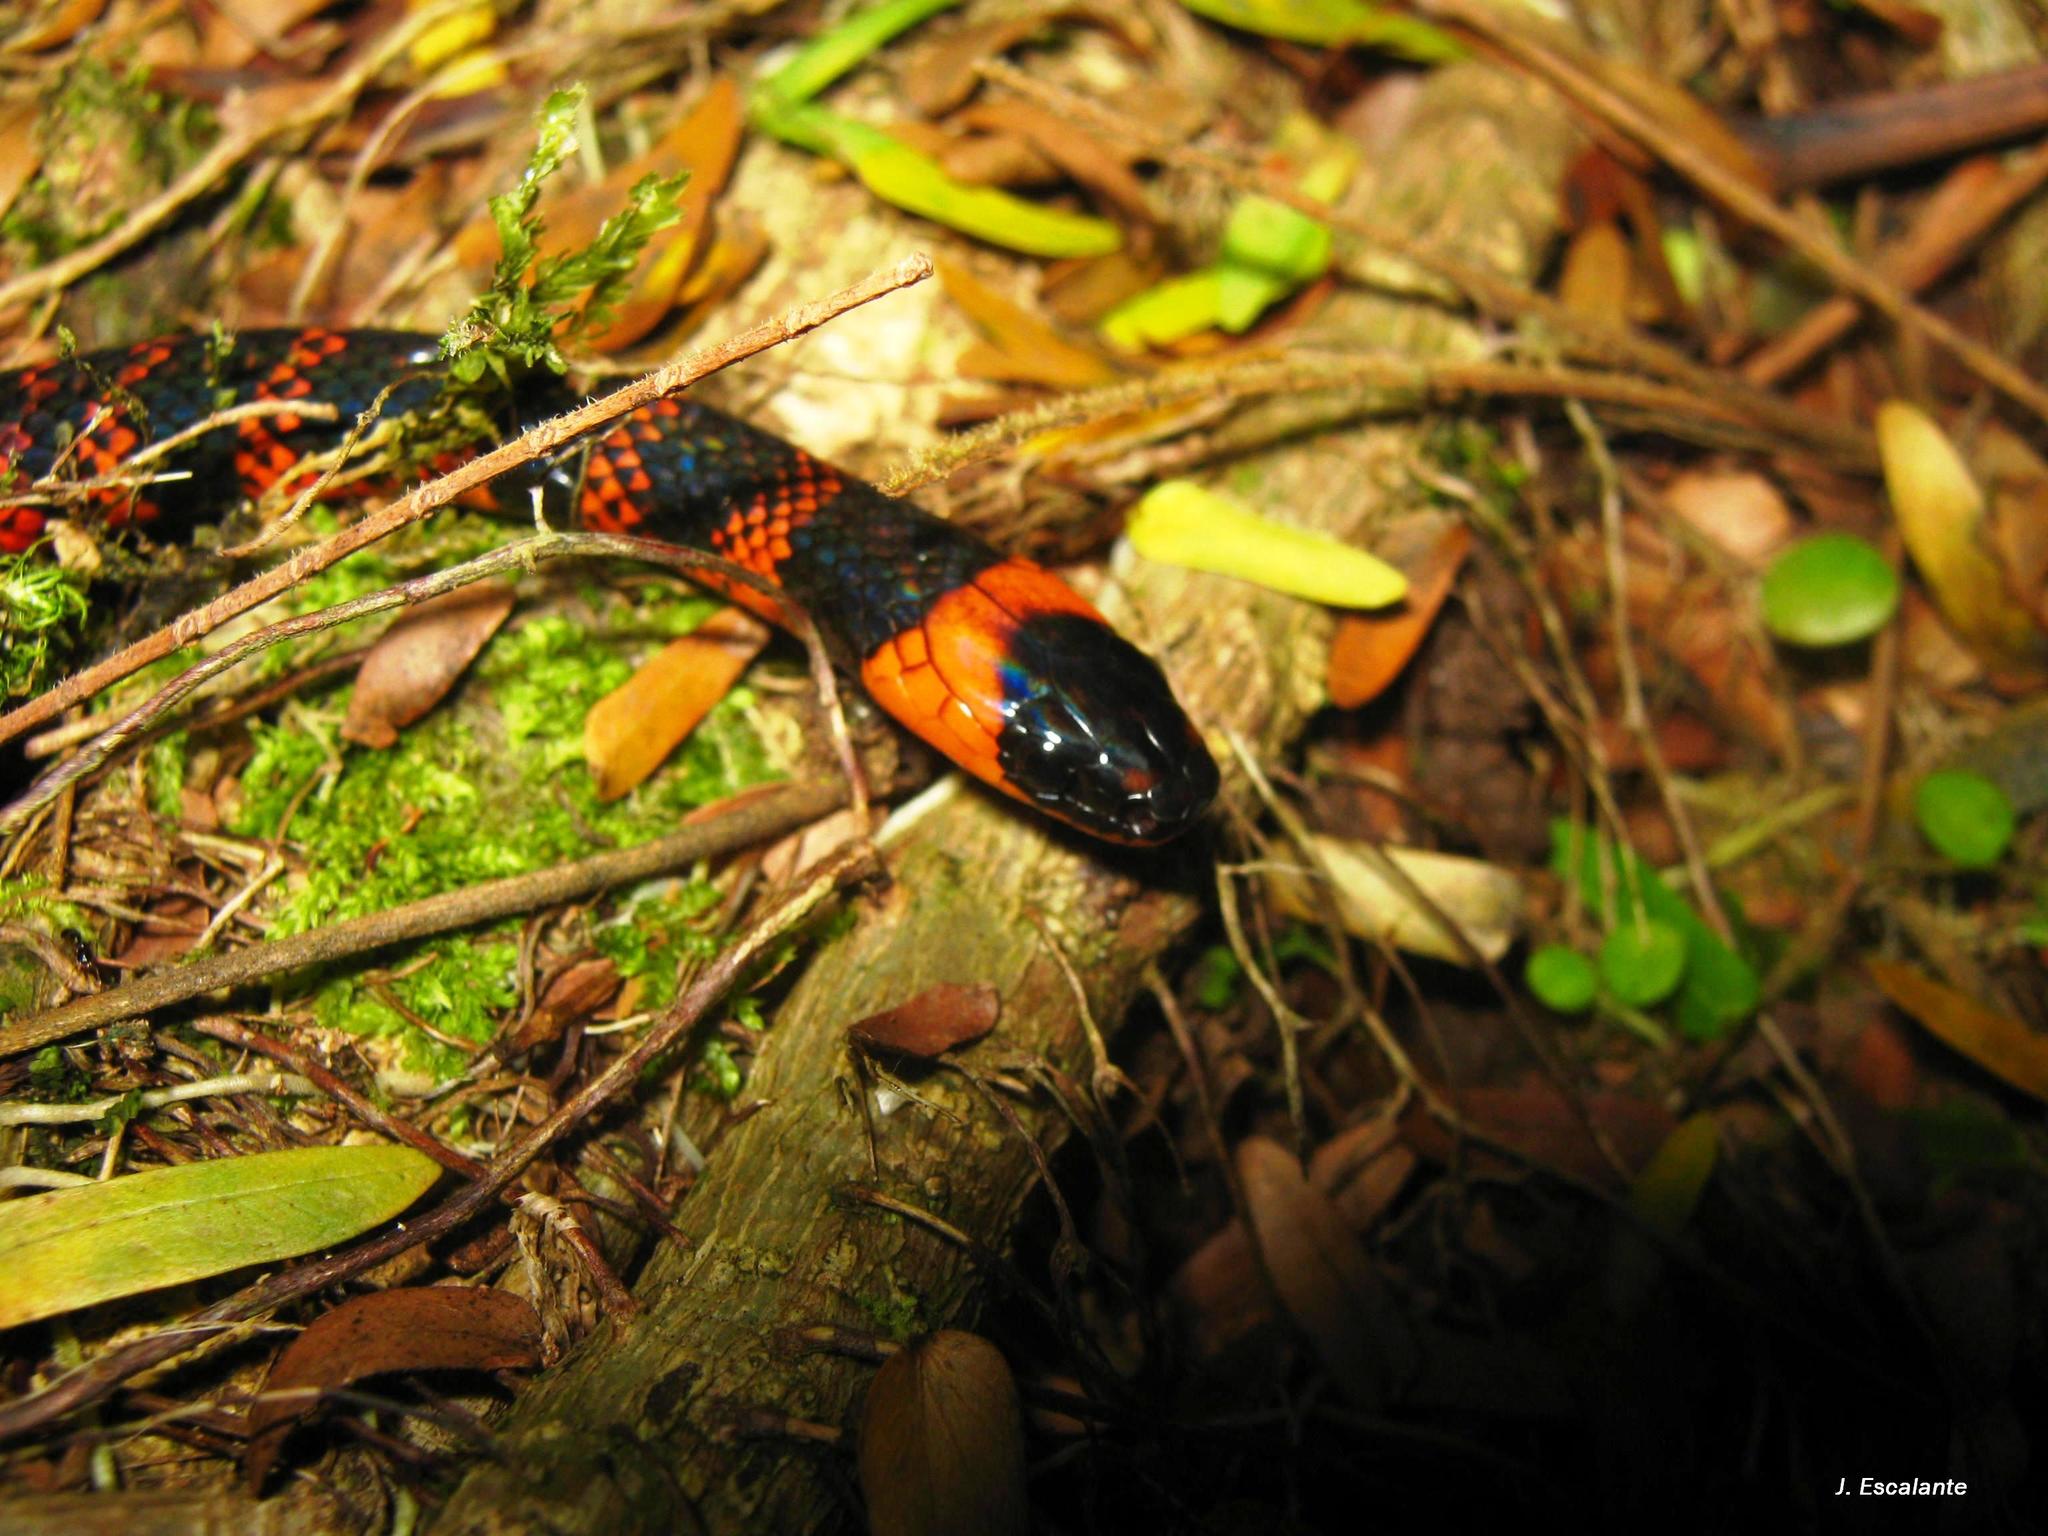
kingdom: Animalia
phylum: Chordata
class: Squamata
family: Colubridae
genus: Pliocercus
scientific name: Pliocercus elapoides
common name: Variegated false coral snake.
